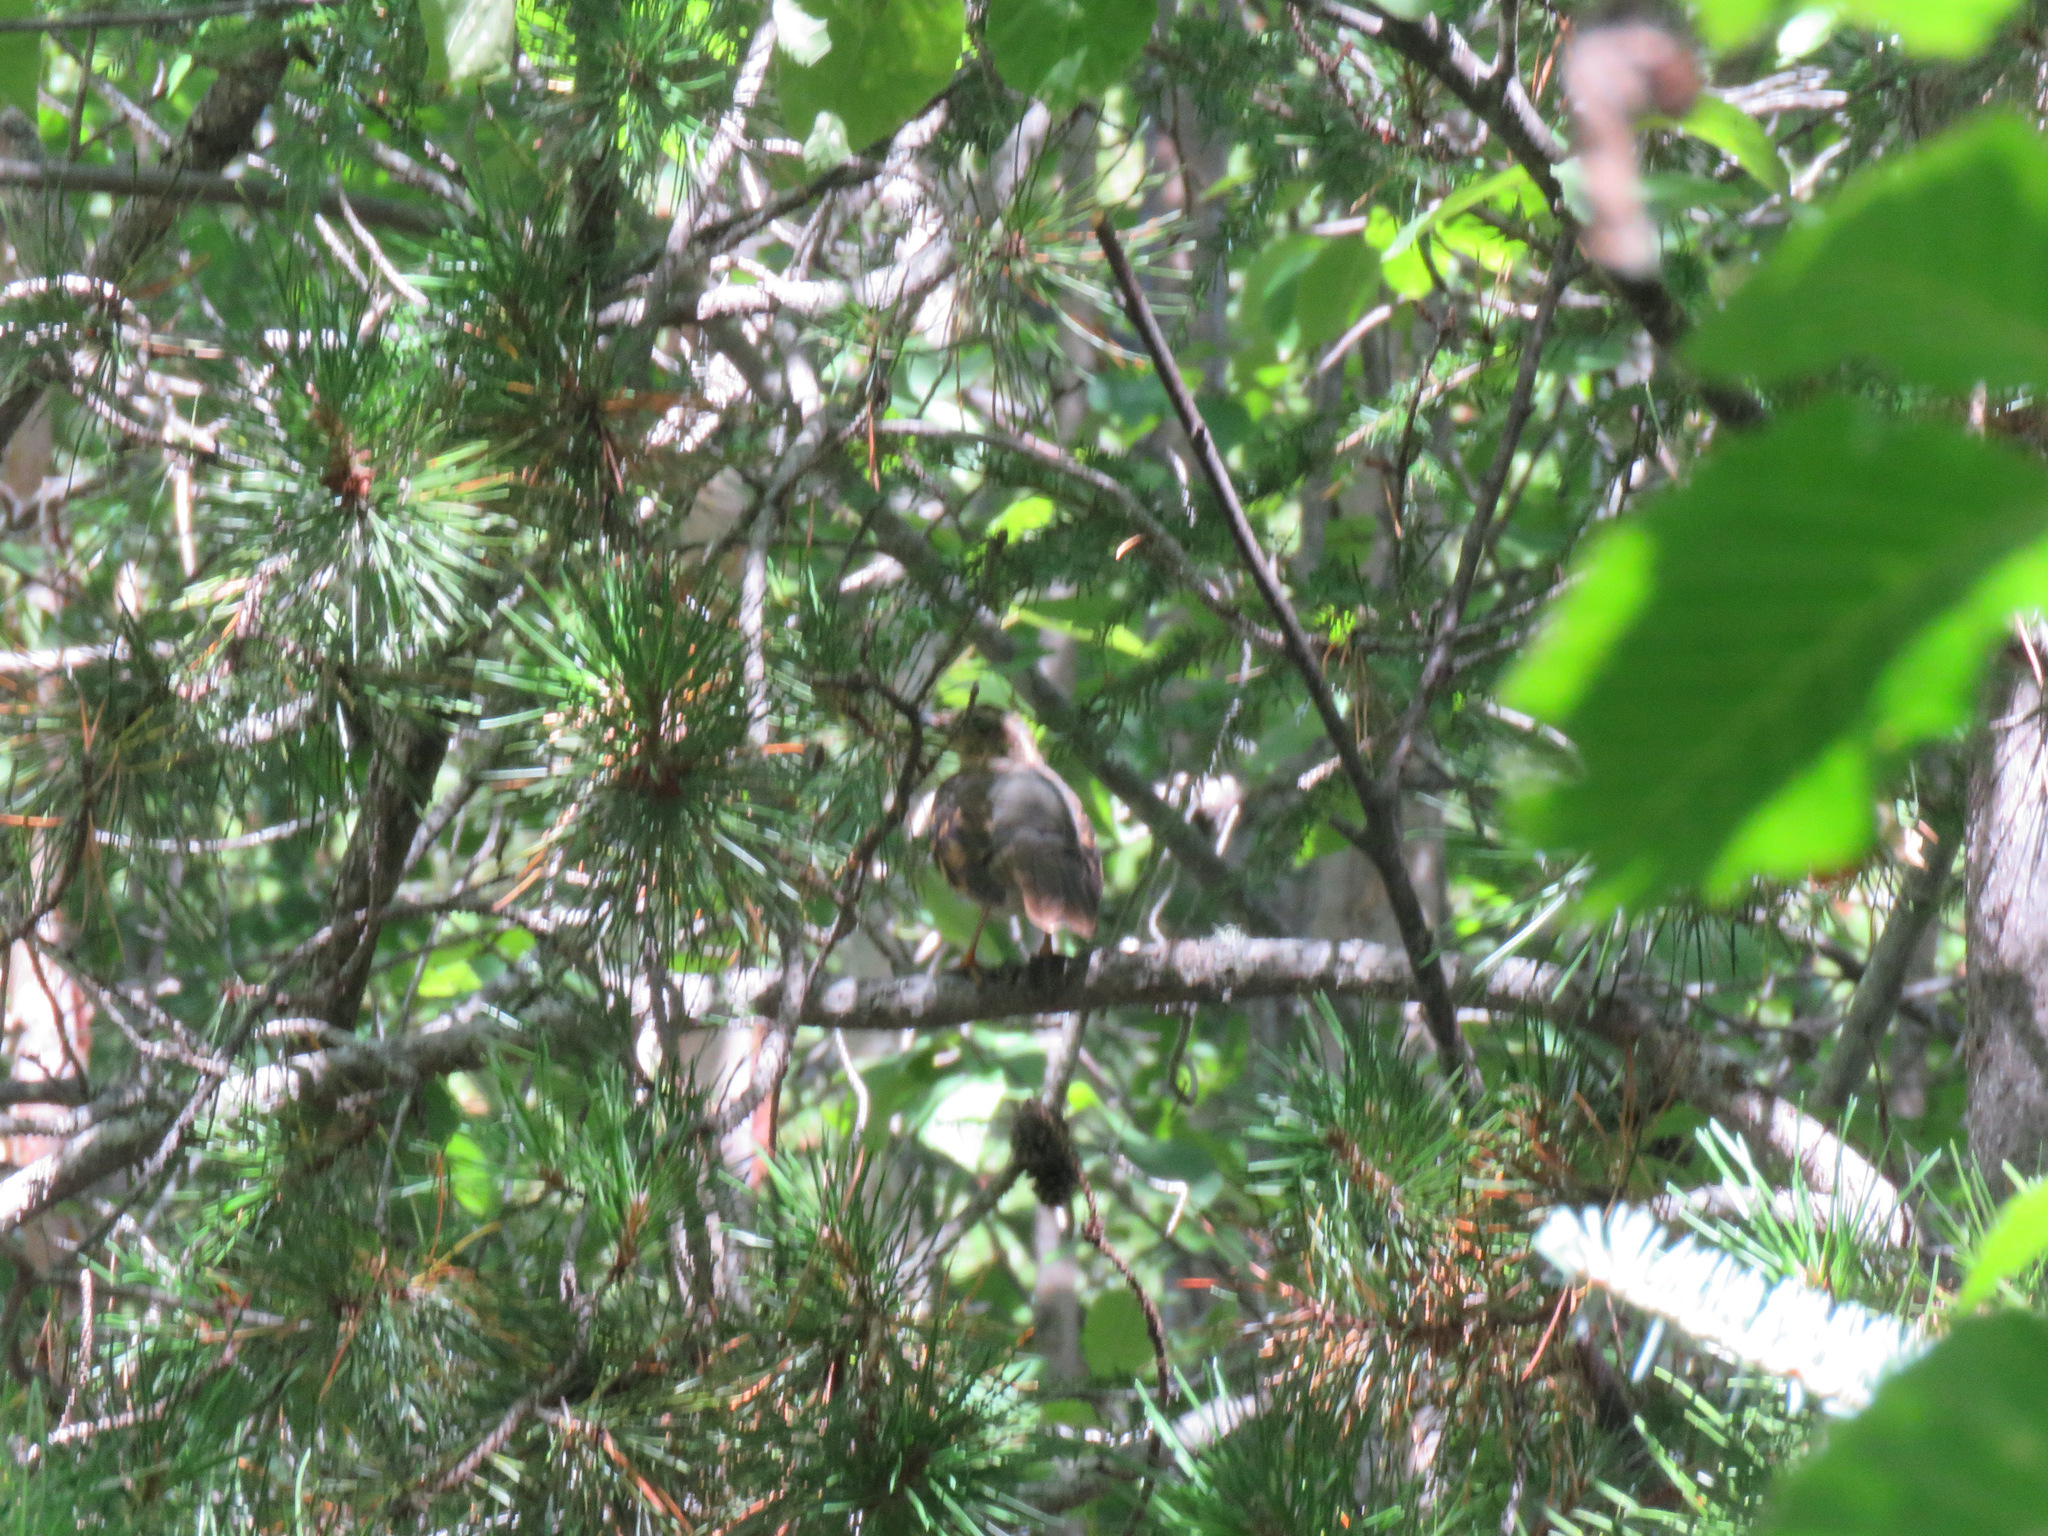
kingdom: Animalia
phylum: Chordata
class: Aves
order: Passeriformes
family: Turdidae
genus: Ixoreus
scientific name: Ixoreus naevius
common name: Varied thrush
